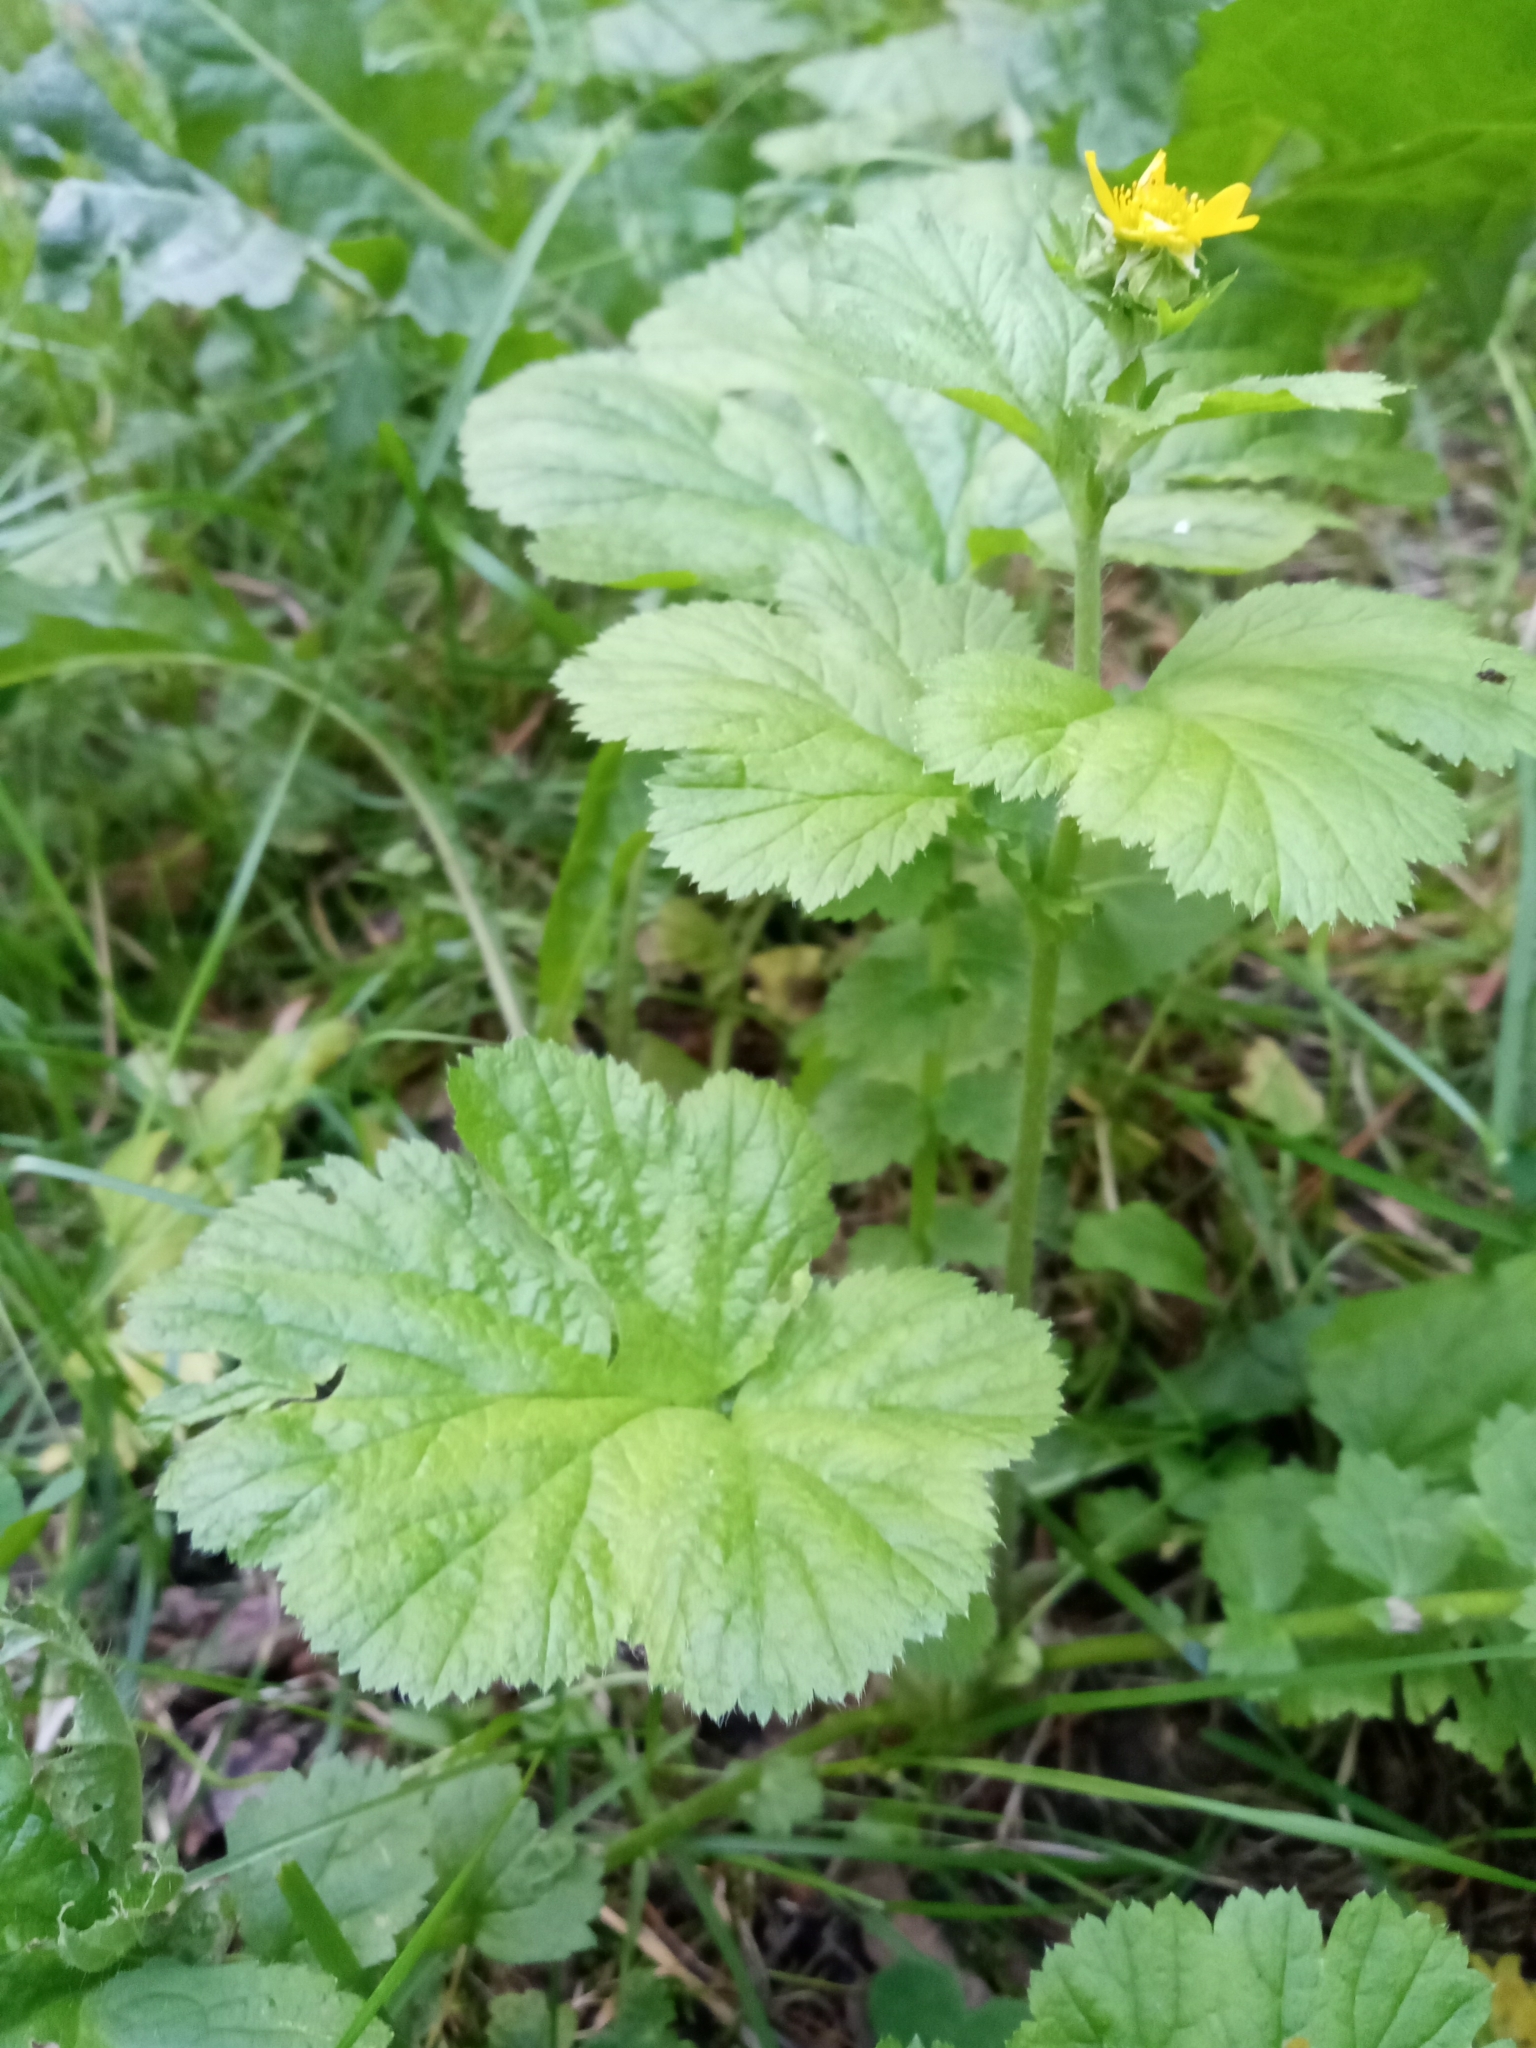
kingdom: Plantae
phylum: Tracheophyta
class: Magnoliopsida
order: Rosales
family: Rosaceae
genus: Geum
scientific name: Geum macrophyllum
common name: Large-leaved avens
